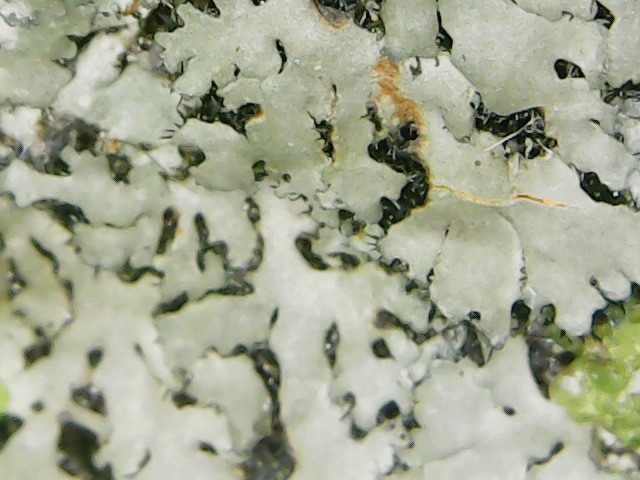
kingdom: Fungi
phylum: Ascomycota
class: Lecanoromycetes
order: Caliciales
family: Physciaceae
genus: Phaeophyscia
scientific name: Phaeophyscia rubropulchra
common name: Orange-cored shadow lichen
